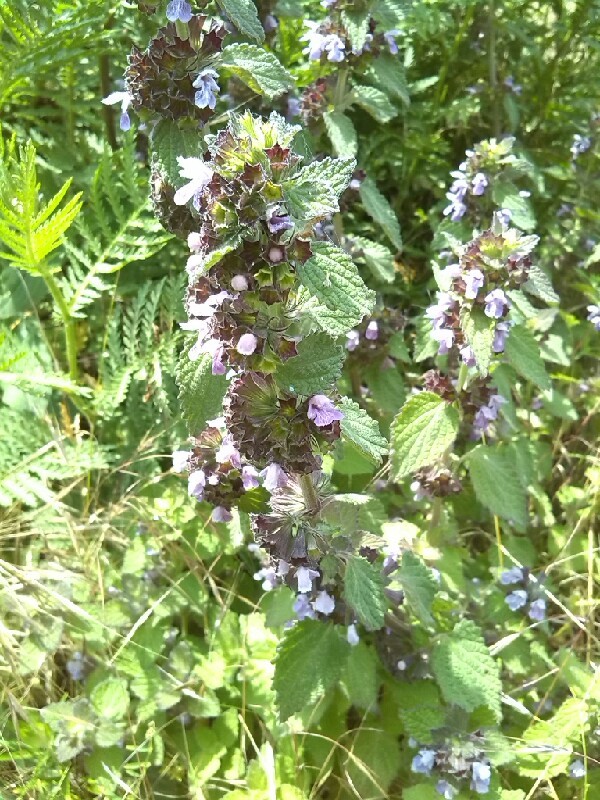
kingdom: Plantae
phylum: Tracheophyta
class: Magnoliopsida
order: Lamiales
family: Lamiaceae
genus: Ballota
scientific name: Ballota nigra
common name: Black horehound
